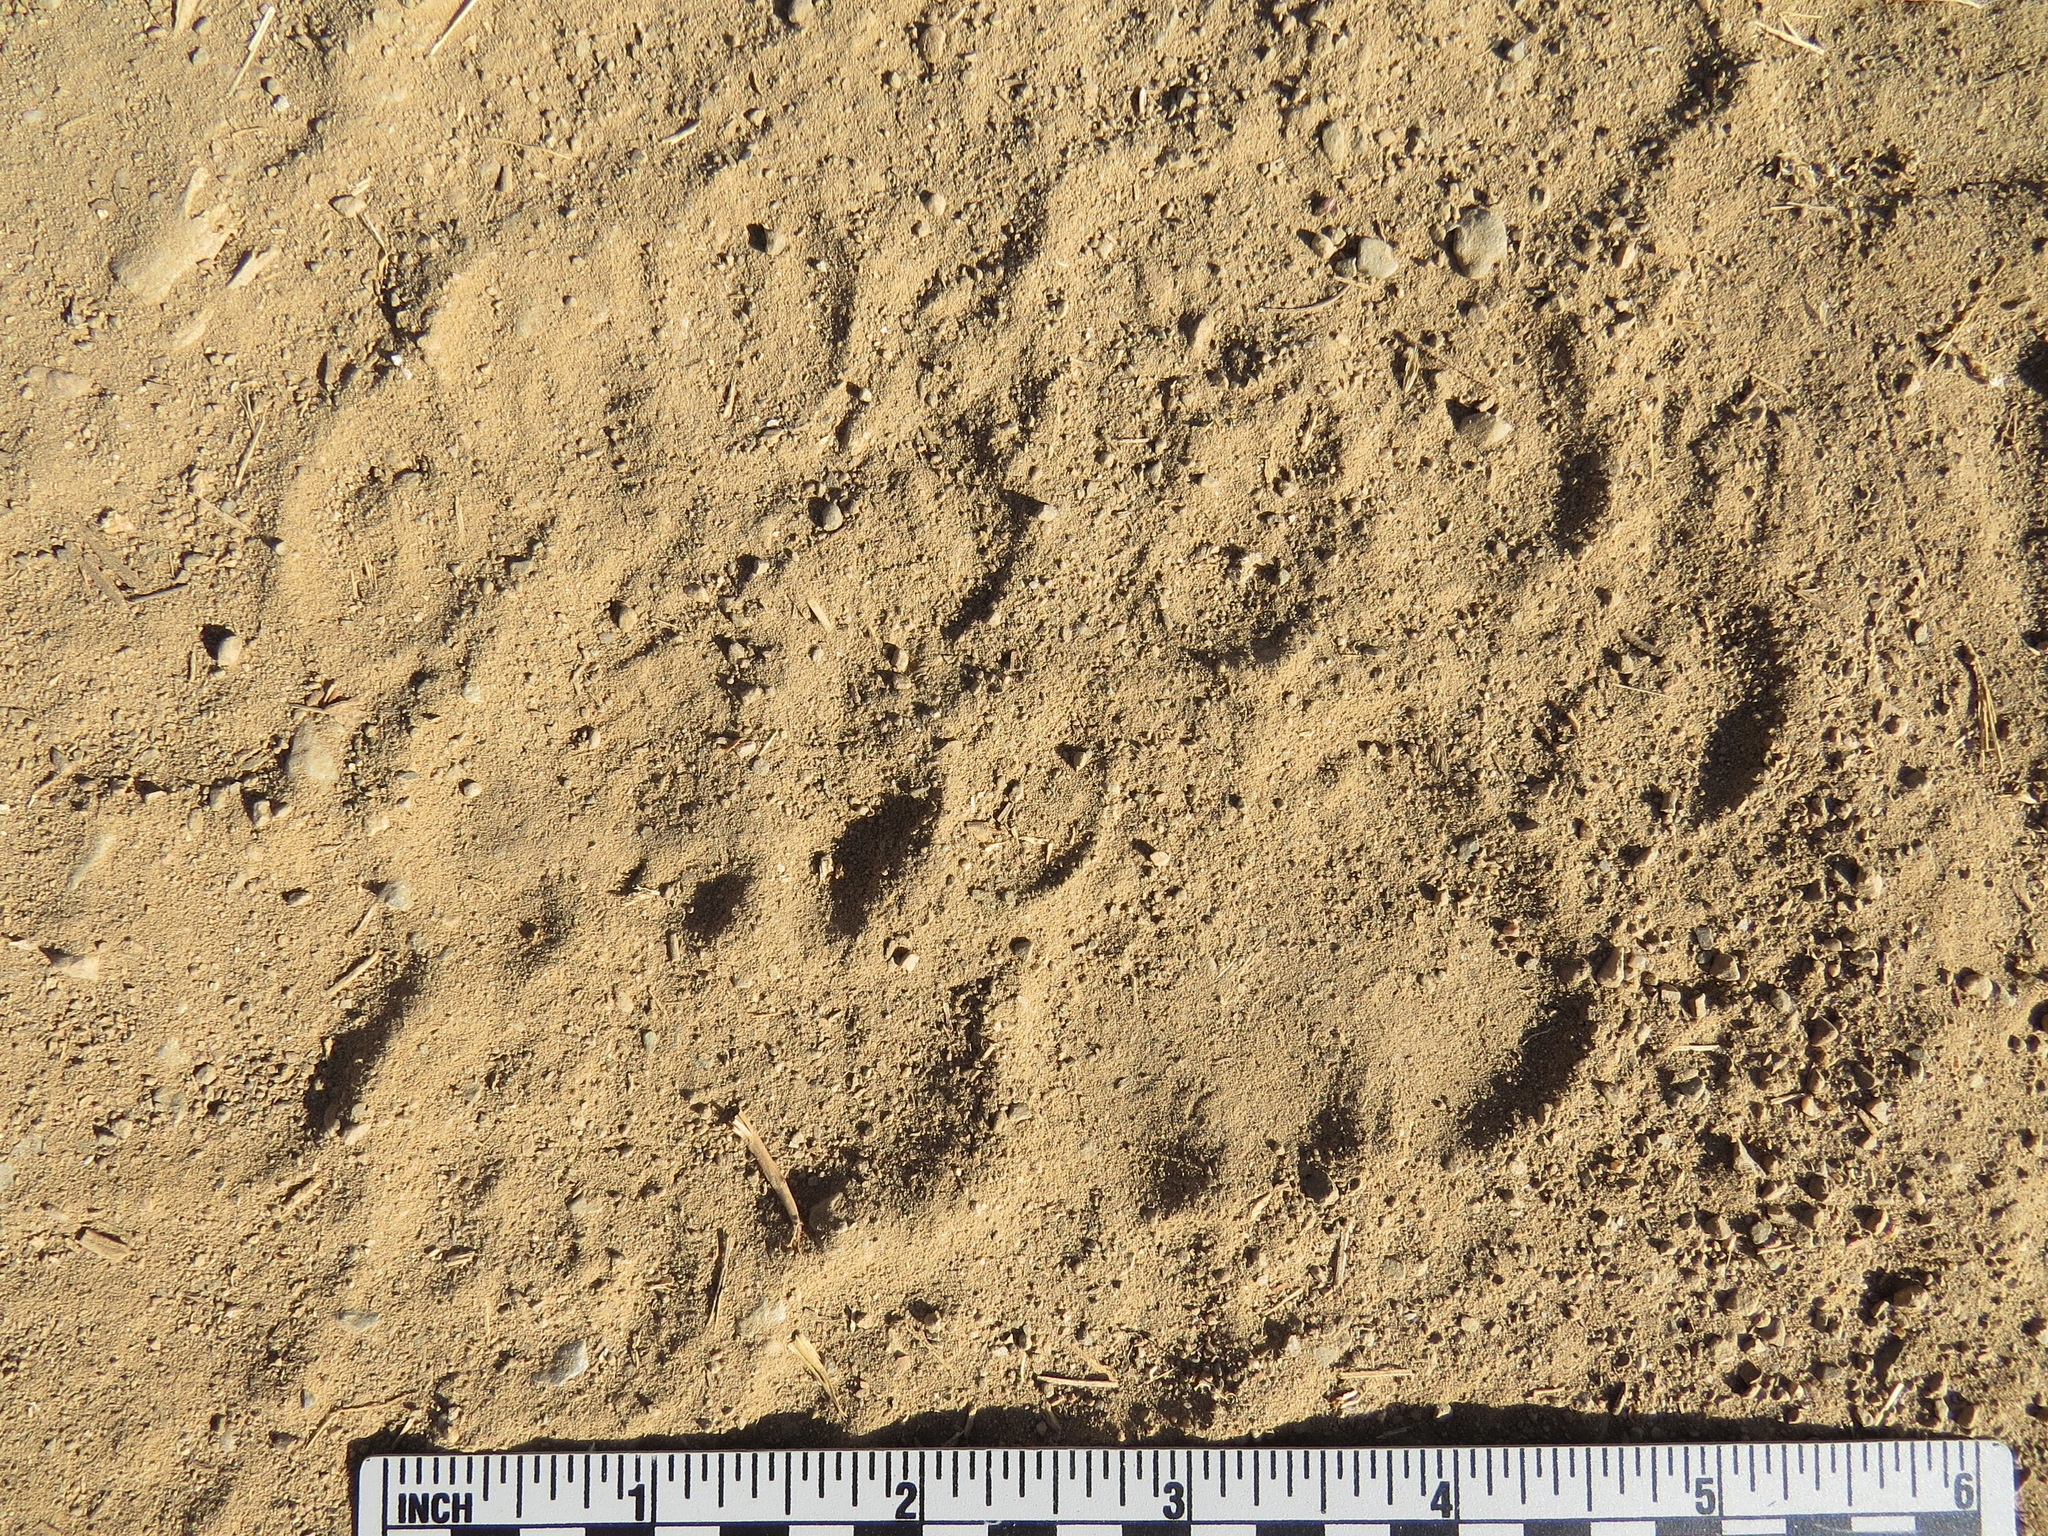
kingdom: Animalia
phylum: Chordata
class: Mammalia
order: Carnivora
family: Felidae
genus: Puma
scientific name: Puma concolor
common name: Puma
